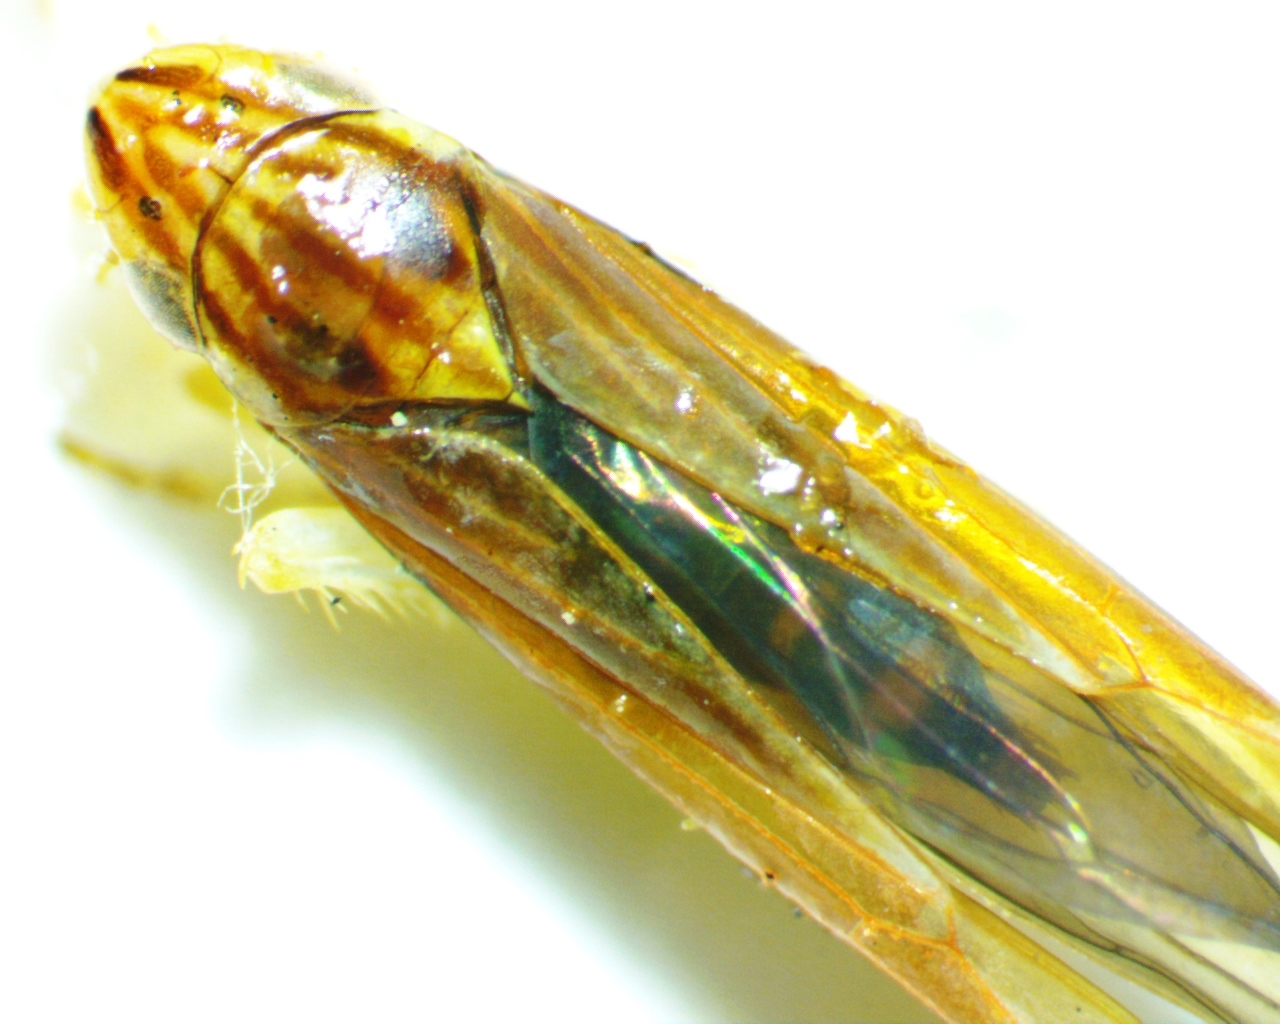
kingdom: Animalia
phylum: Arthropoda
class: Insecta
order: Hemiptera
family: Cicadellidae
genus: Sibovia
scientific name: Sibovia occatoria
